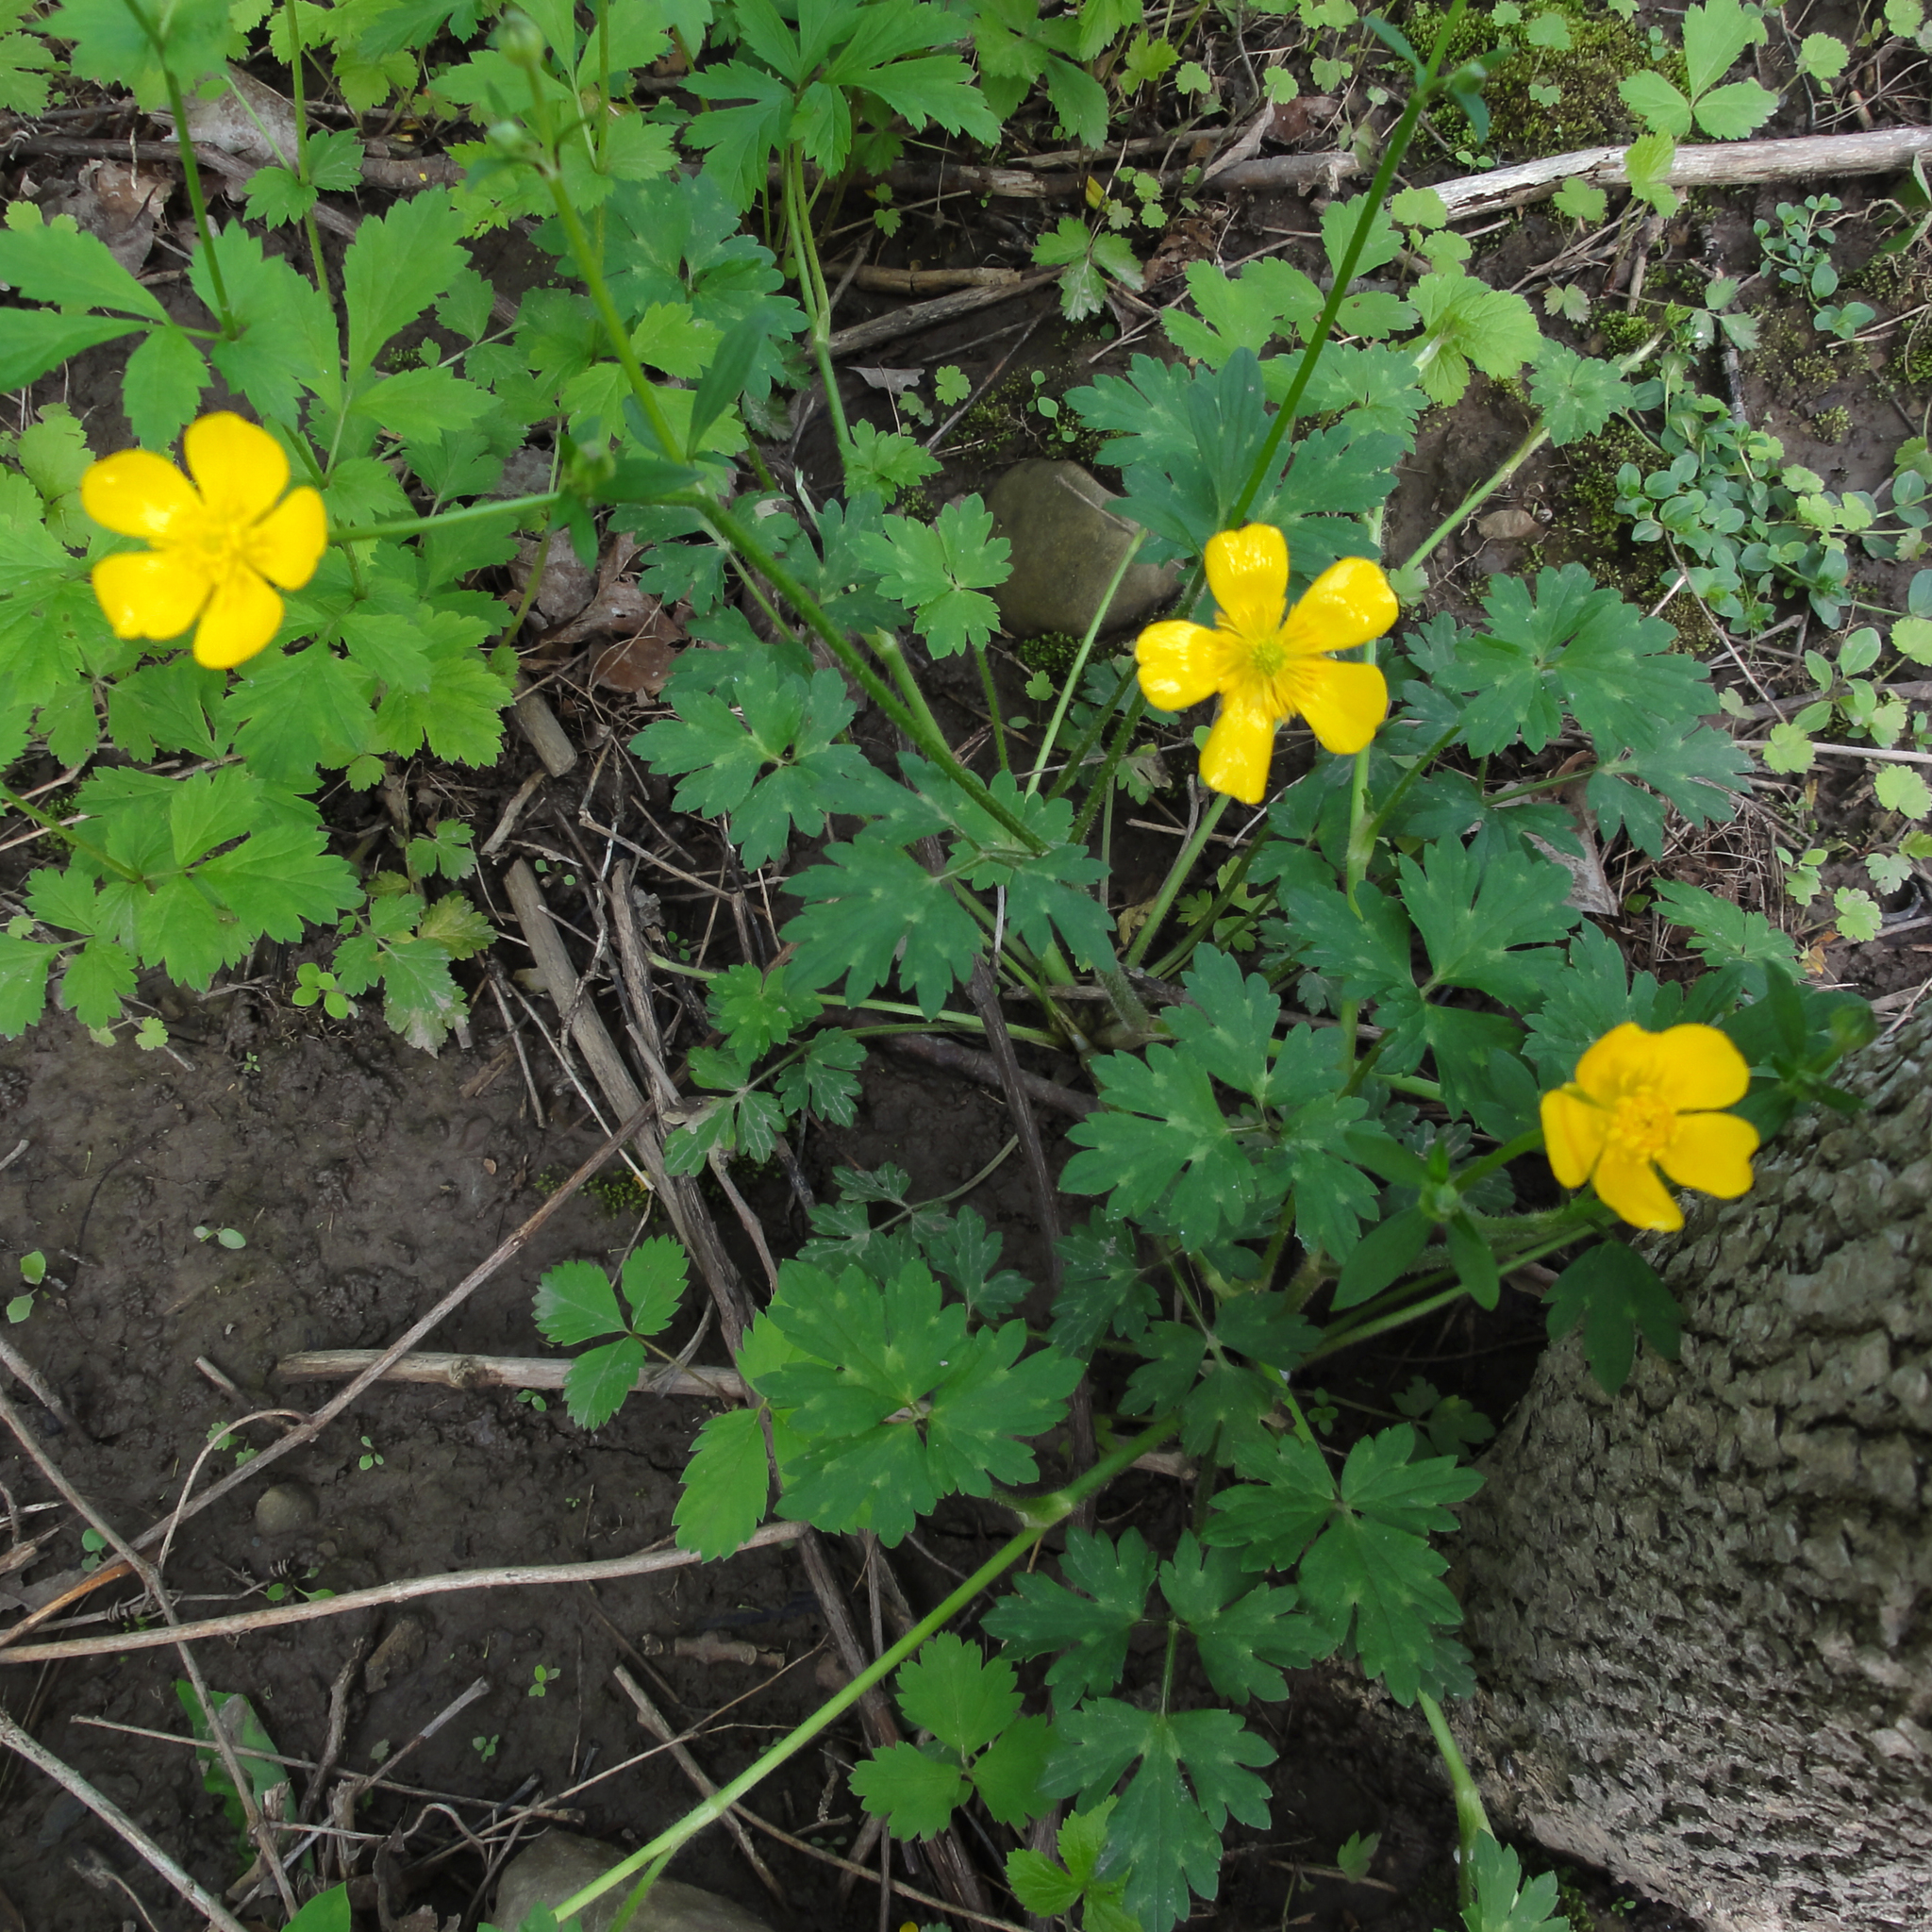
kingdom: Plantae
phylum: Tracheophyta
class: Magnoliopsida
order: Ranunculales
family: Ranunculaceae
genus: Ranunculus
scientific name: Ranunculus repens
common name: Creeping buttercup
